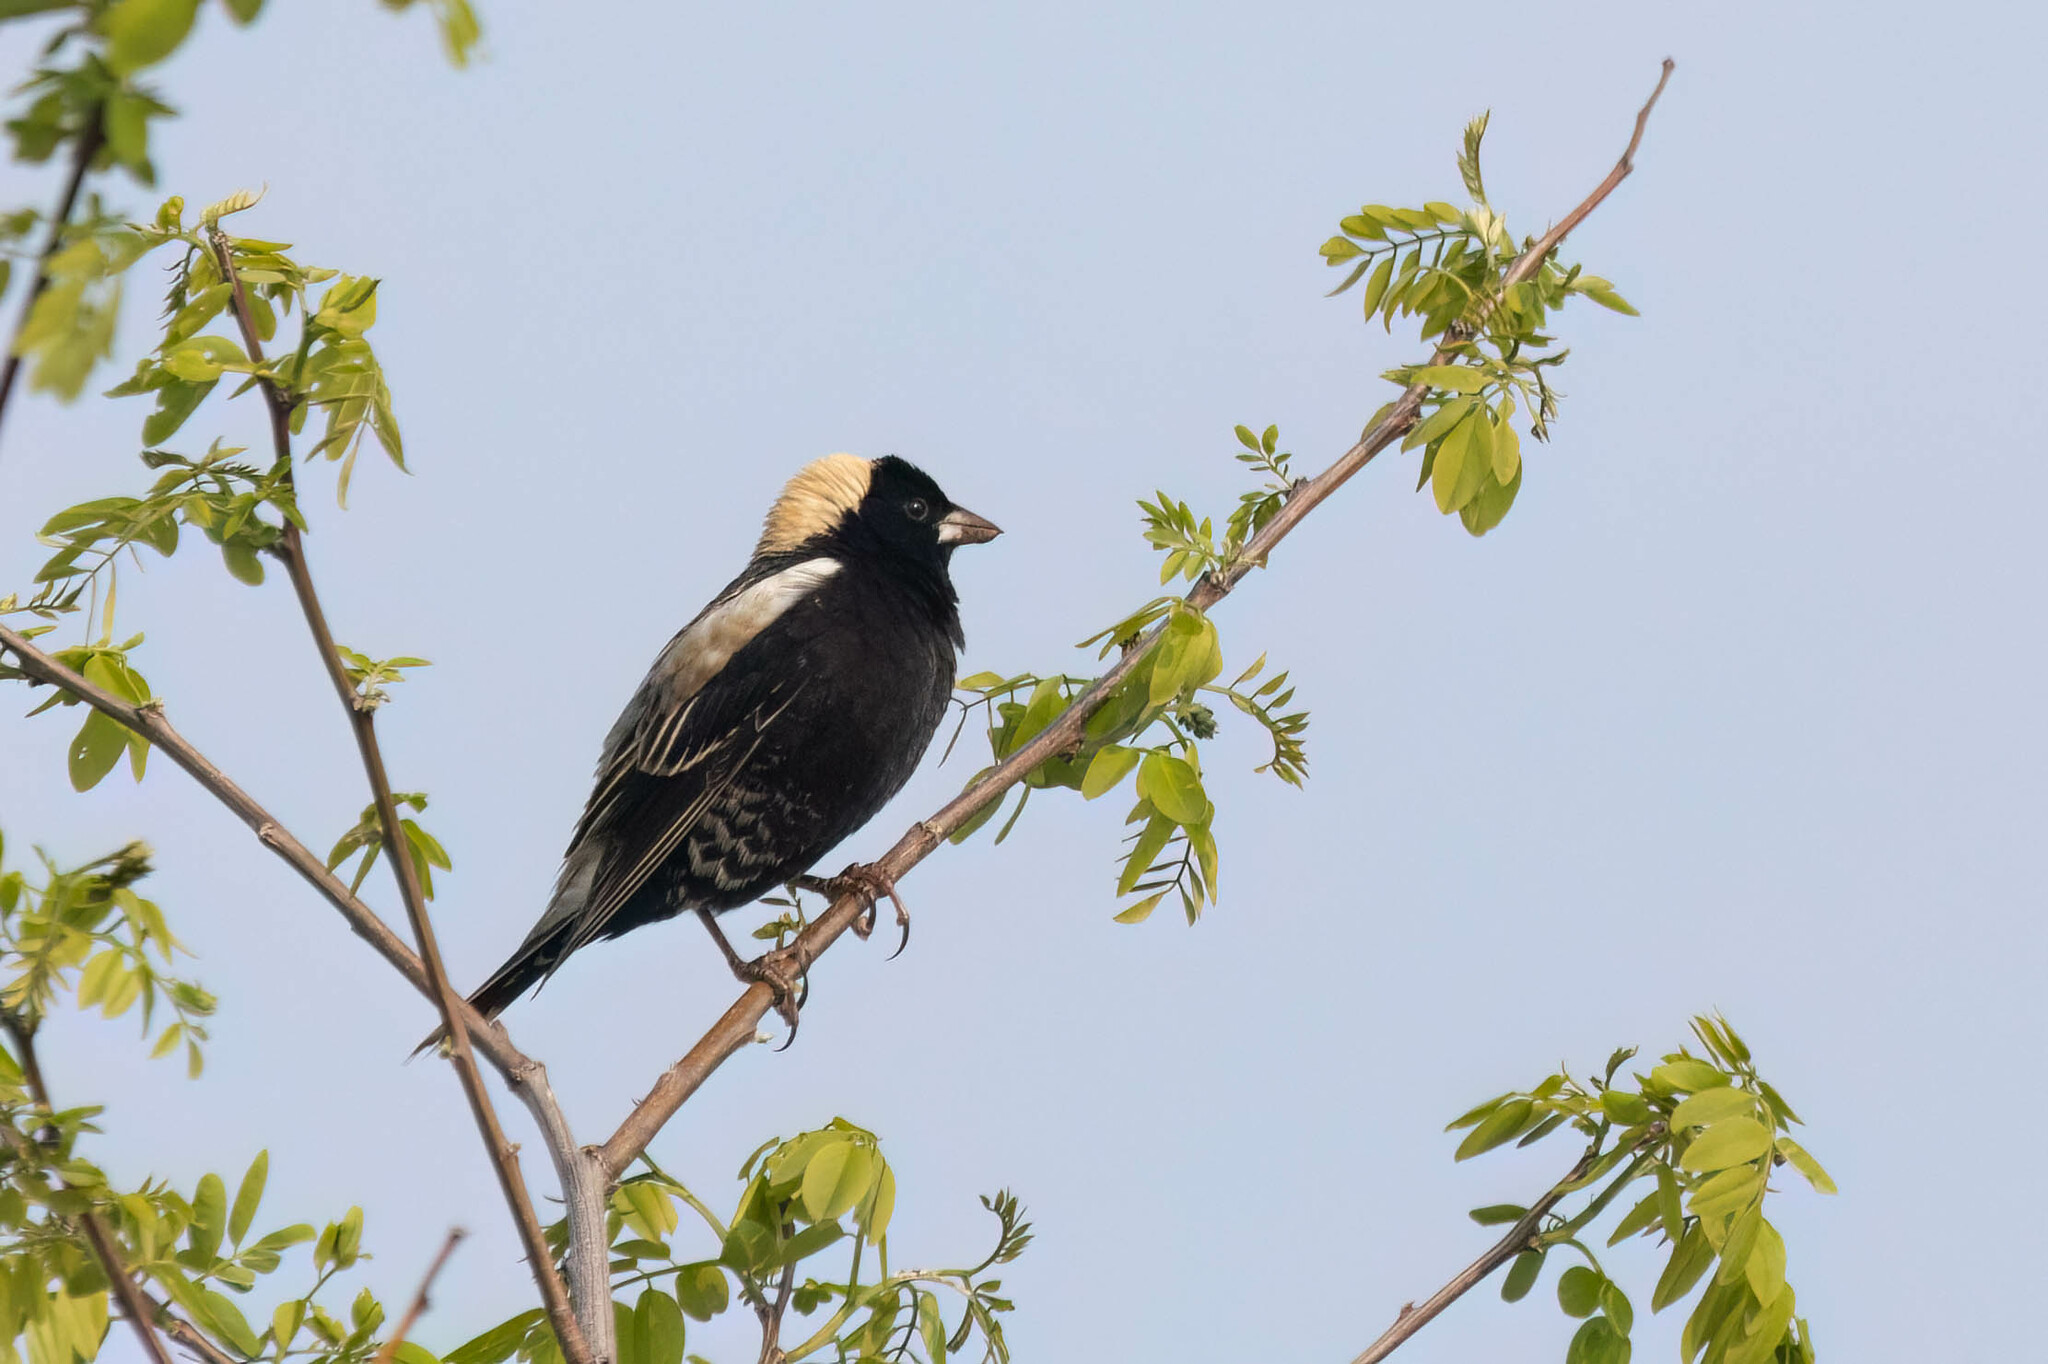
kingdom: Animalia
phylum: Chordata
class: Aves
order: Passeriformes
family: Icteridae
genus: Dolichonyx
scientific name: Dolichonyx oryzivorus
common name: Bobolink
